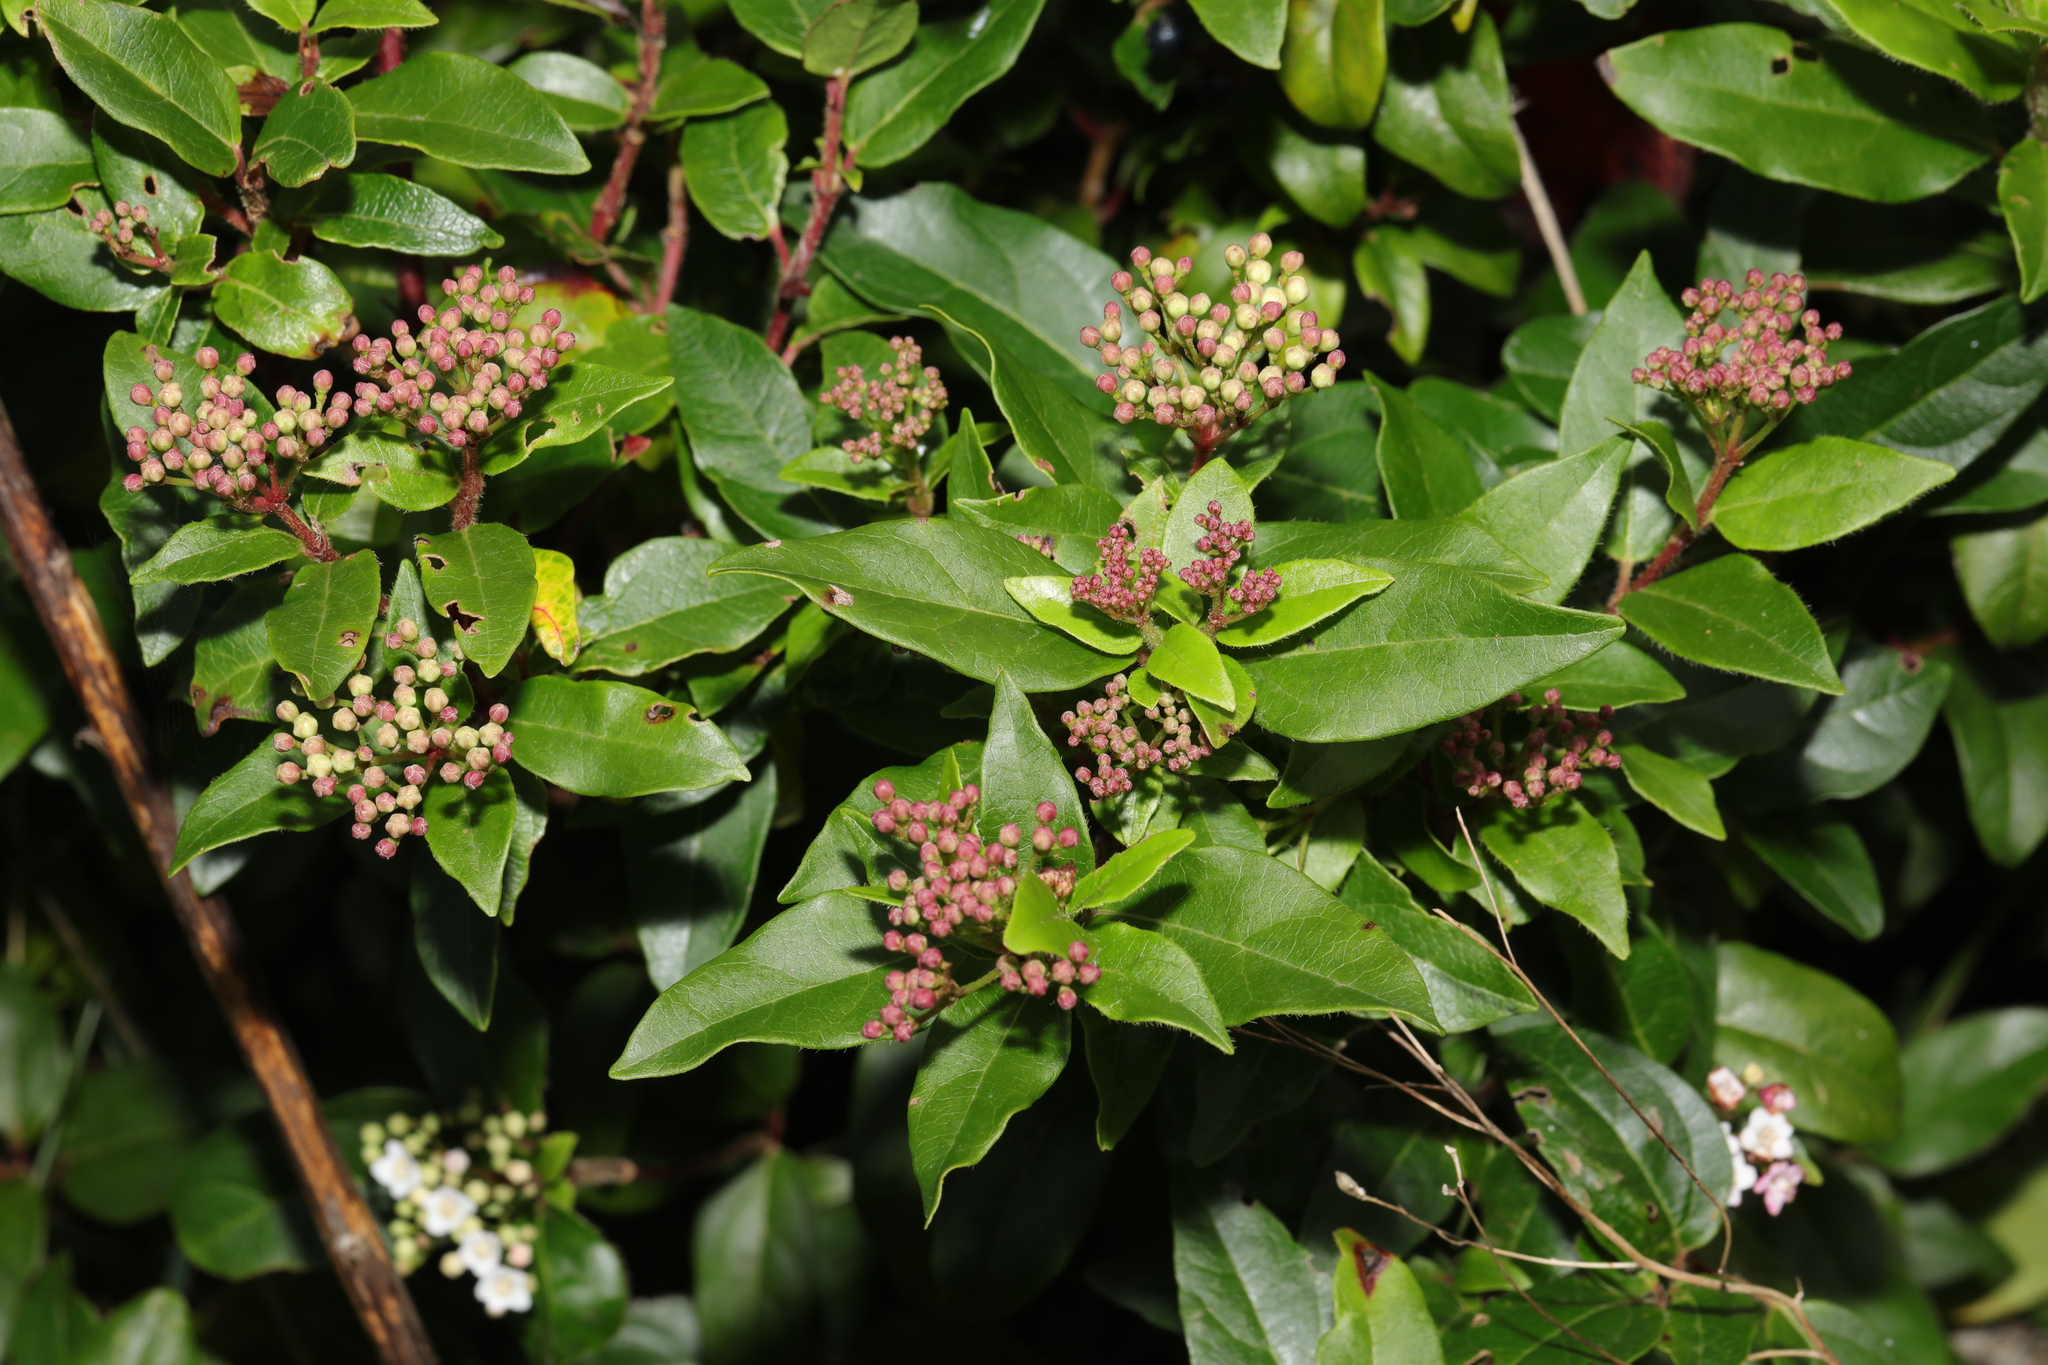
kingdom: Plantae
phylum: Tracheophyta
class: Magnoliopsida
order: Dipsacales
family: Viburnaceae
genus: Viburnum
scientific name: Viburnum tinus
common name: Laurustinus
